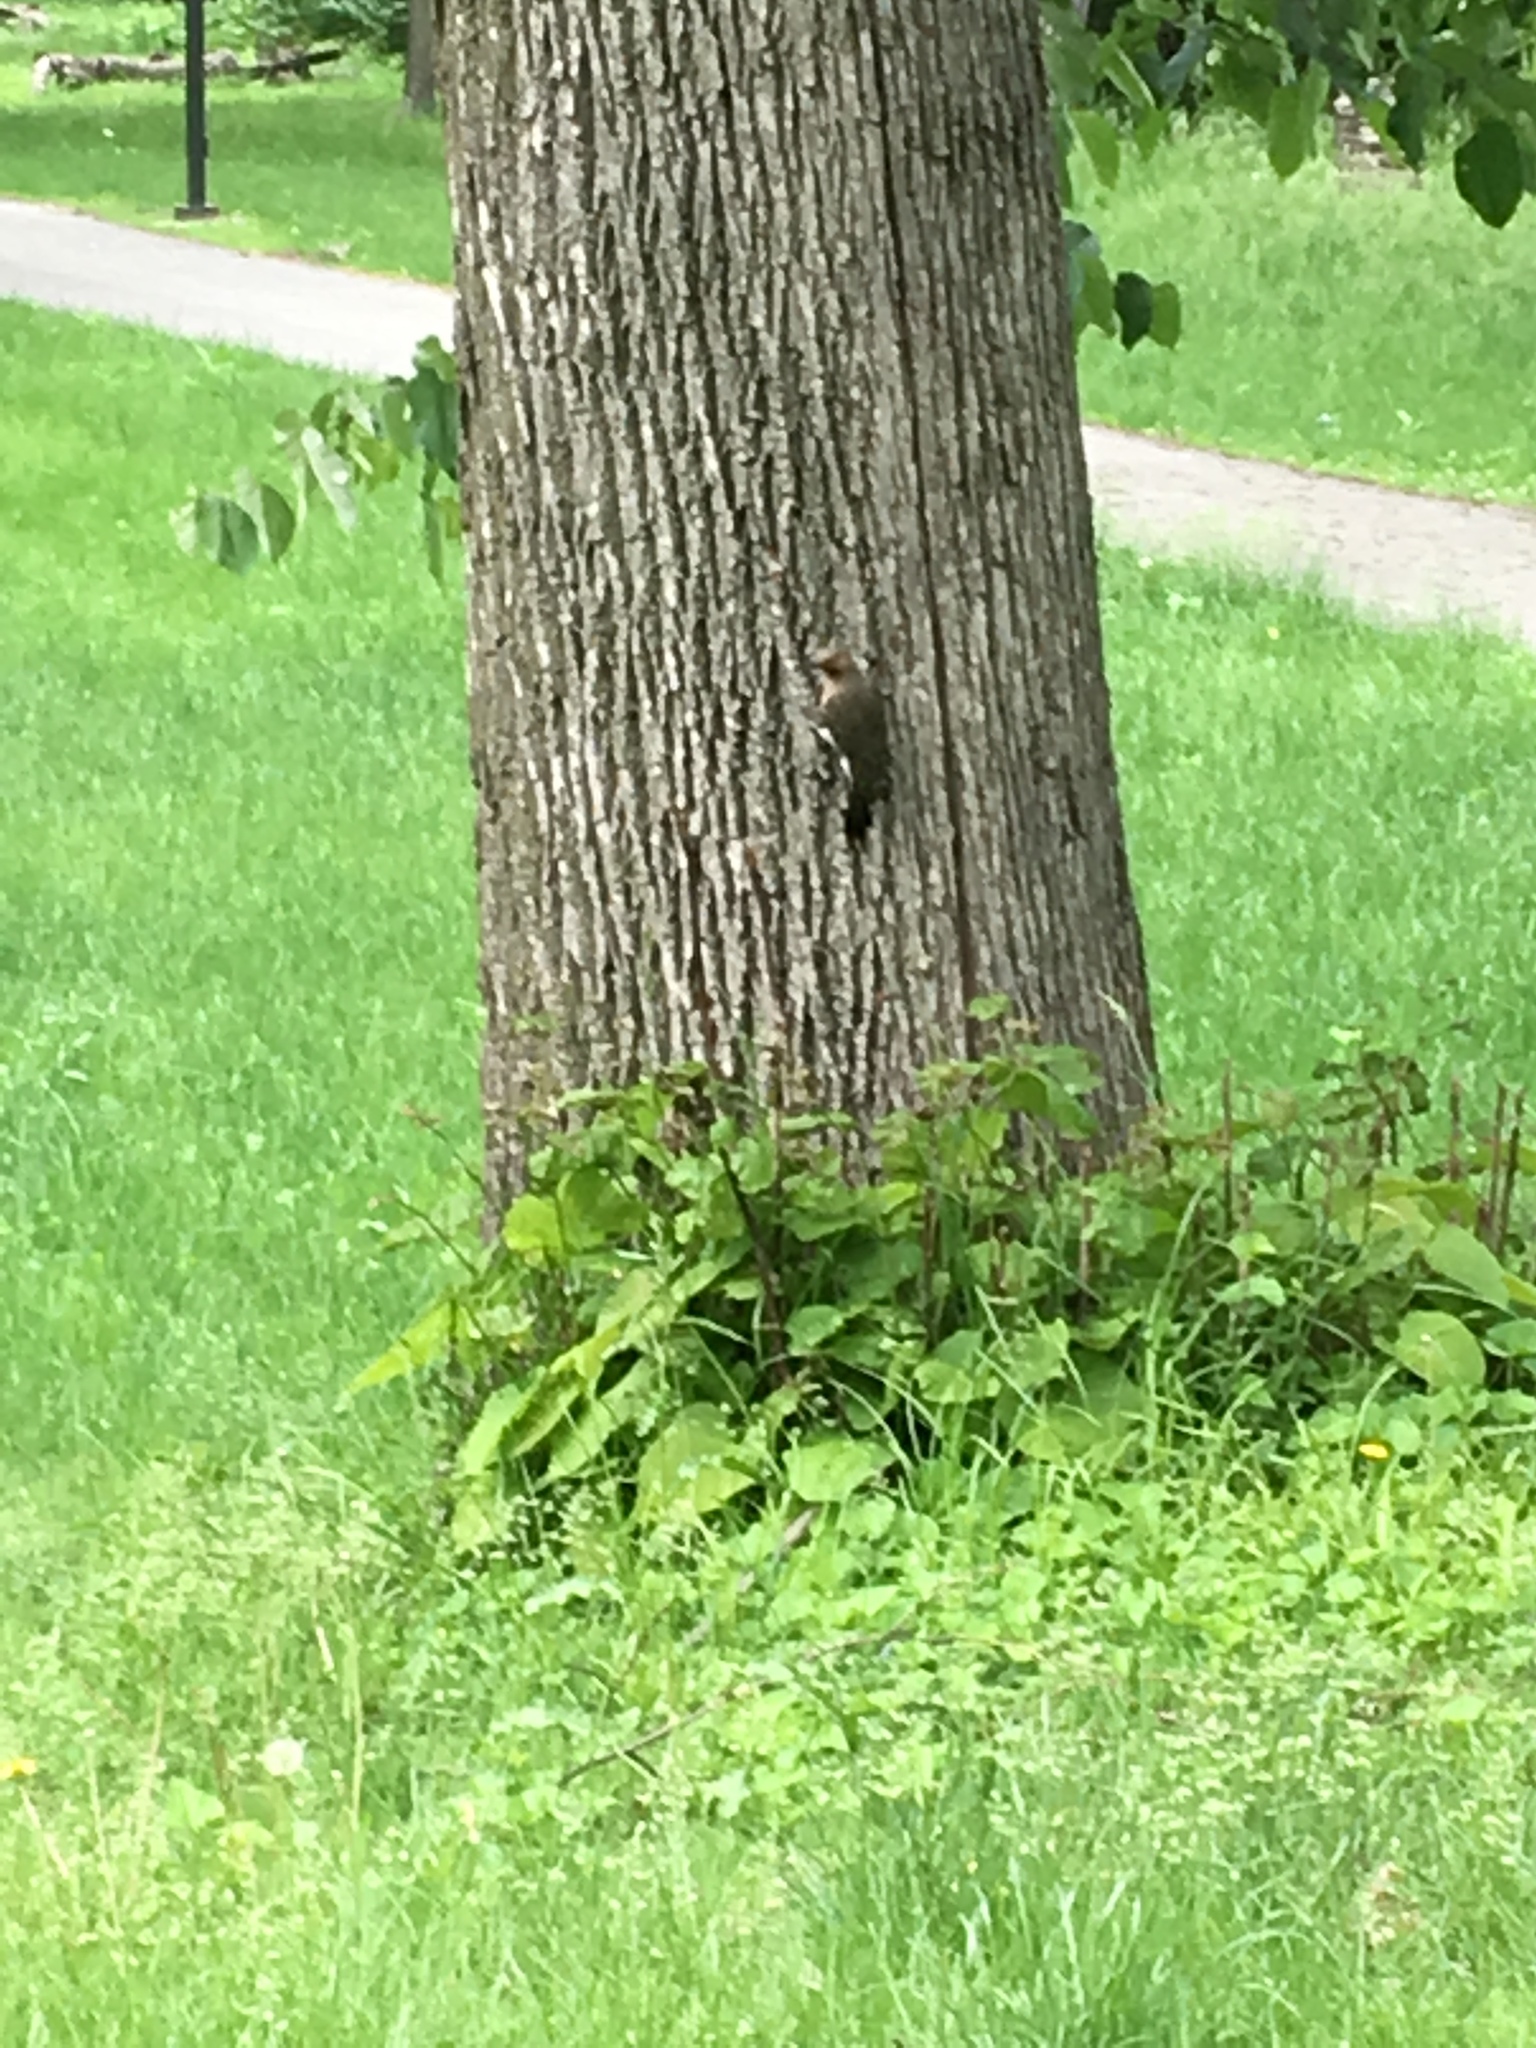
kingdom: Animalia
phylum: Chordata
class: Aves
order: Piciformes
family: Picidae
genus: Colaptes
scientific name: Colaptes auratus
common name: Northern flicker
